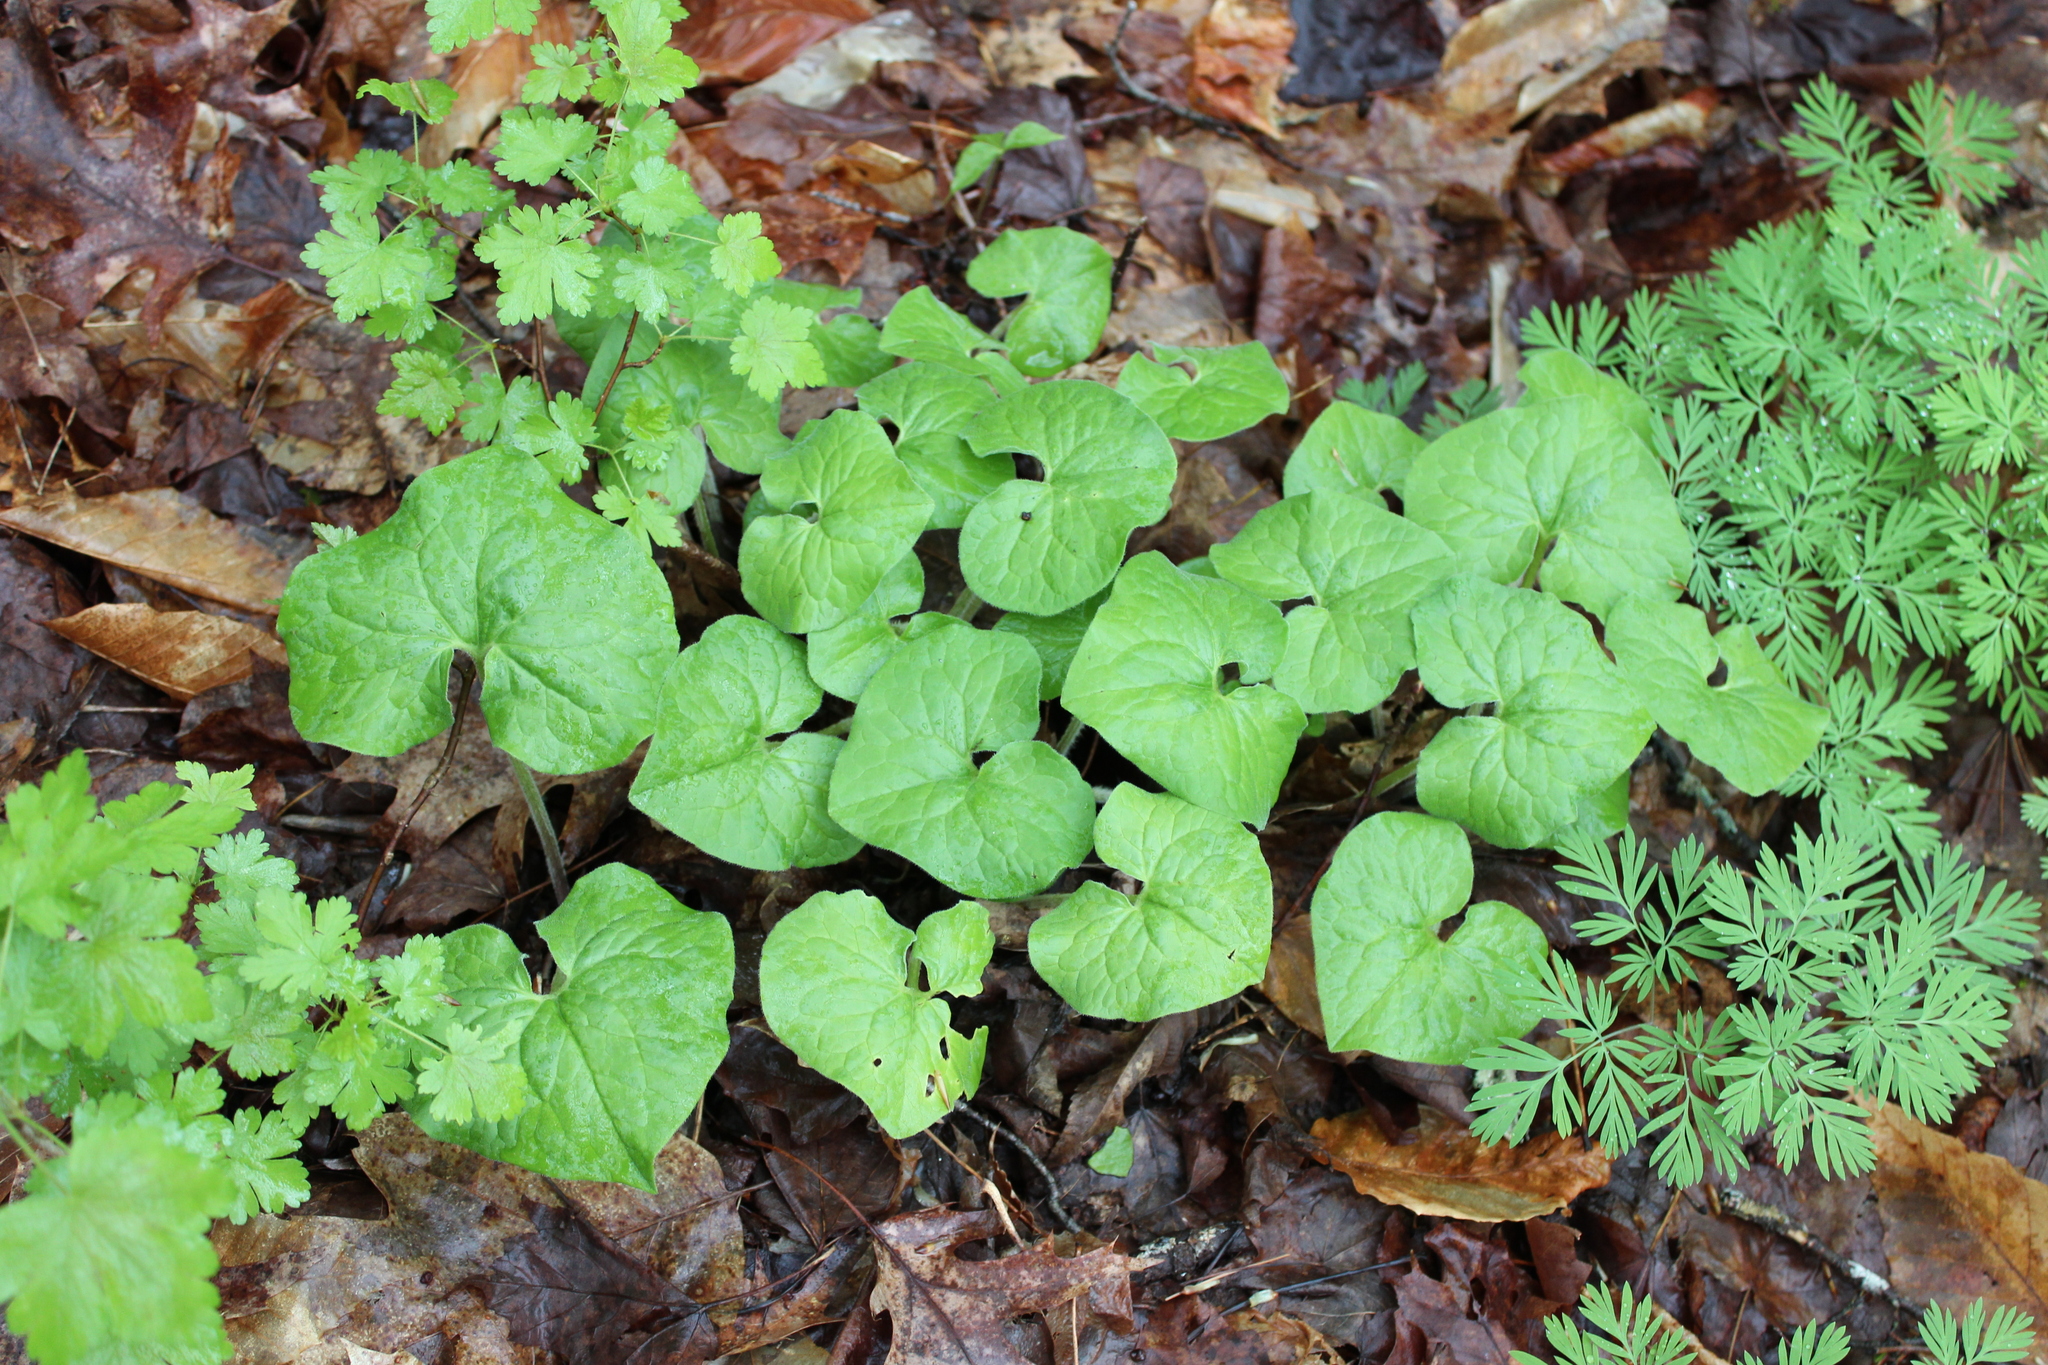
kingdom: Plantae
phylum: Tracheophyta
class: Magnoliopsida
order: Piperales
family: Aristolochiaceae
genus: Asarum
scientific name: Asarum canadense
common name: Wild ginger
